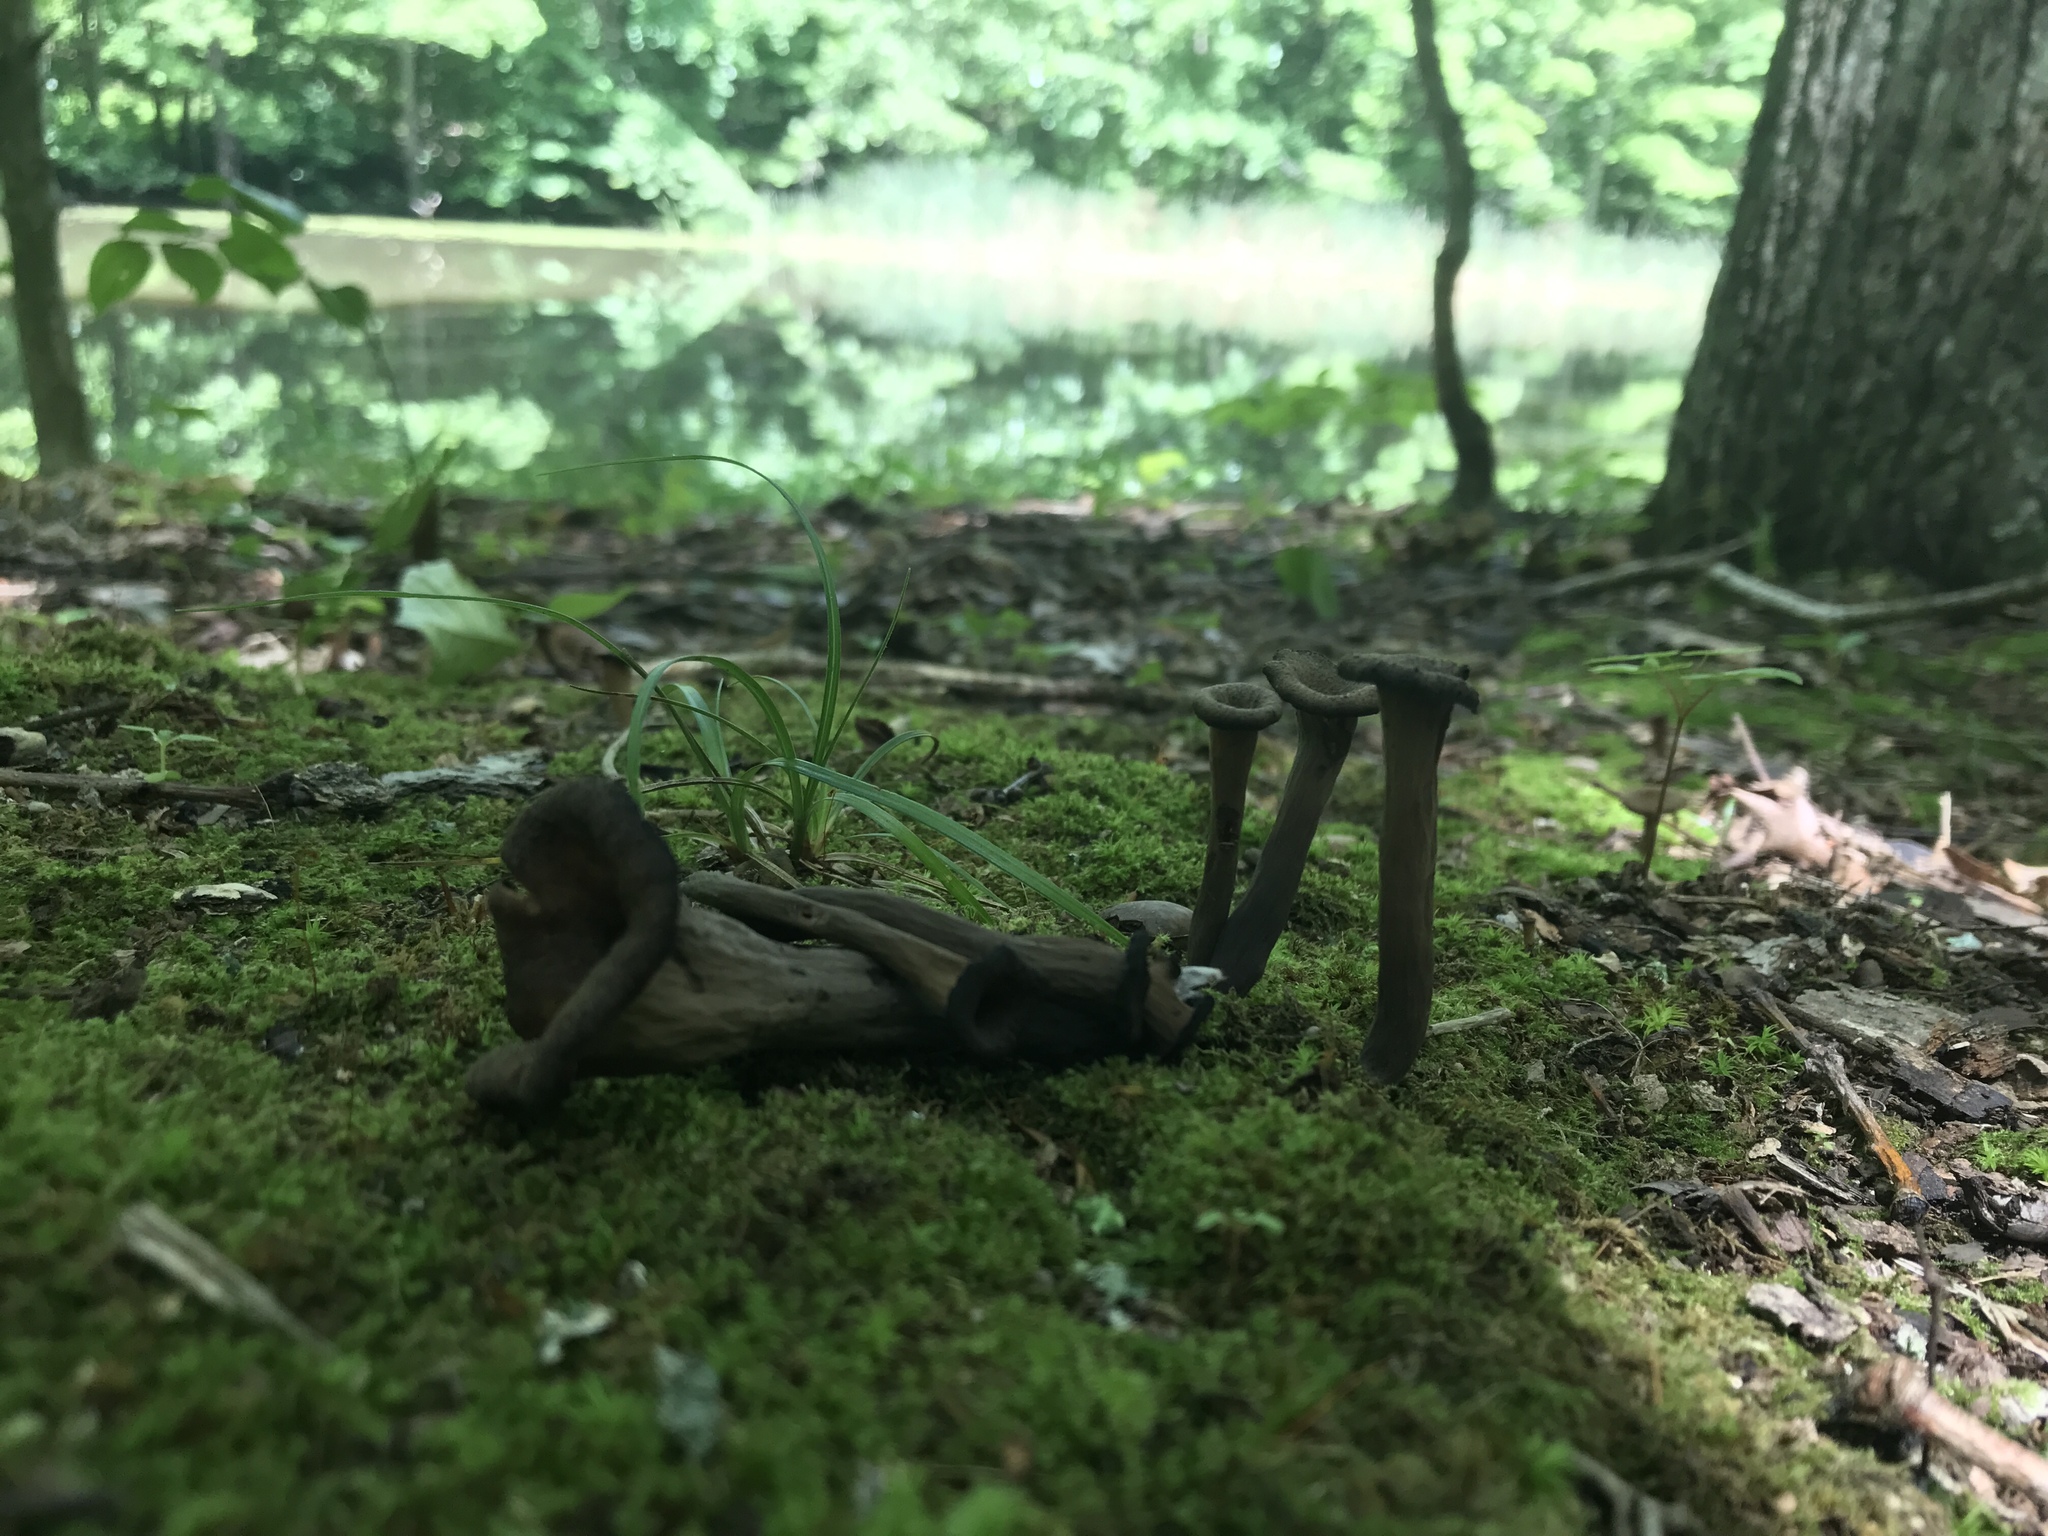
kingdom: Fungi
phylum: Basidiomycota
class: Agaricomycetes
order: Cantharellales
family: Hydnaceae
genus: Craterellus
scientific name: Craterellus cornucopioides
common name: Horn of plenty
